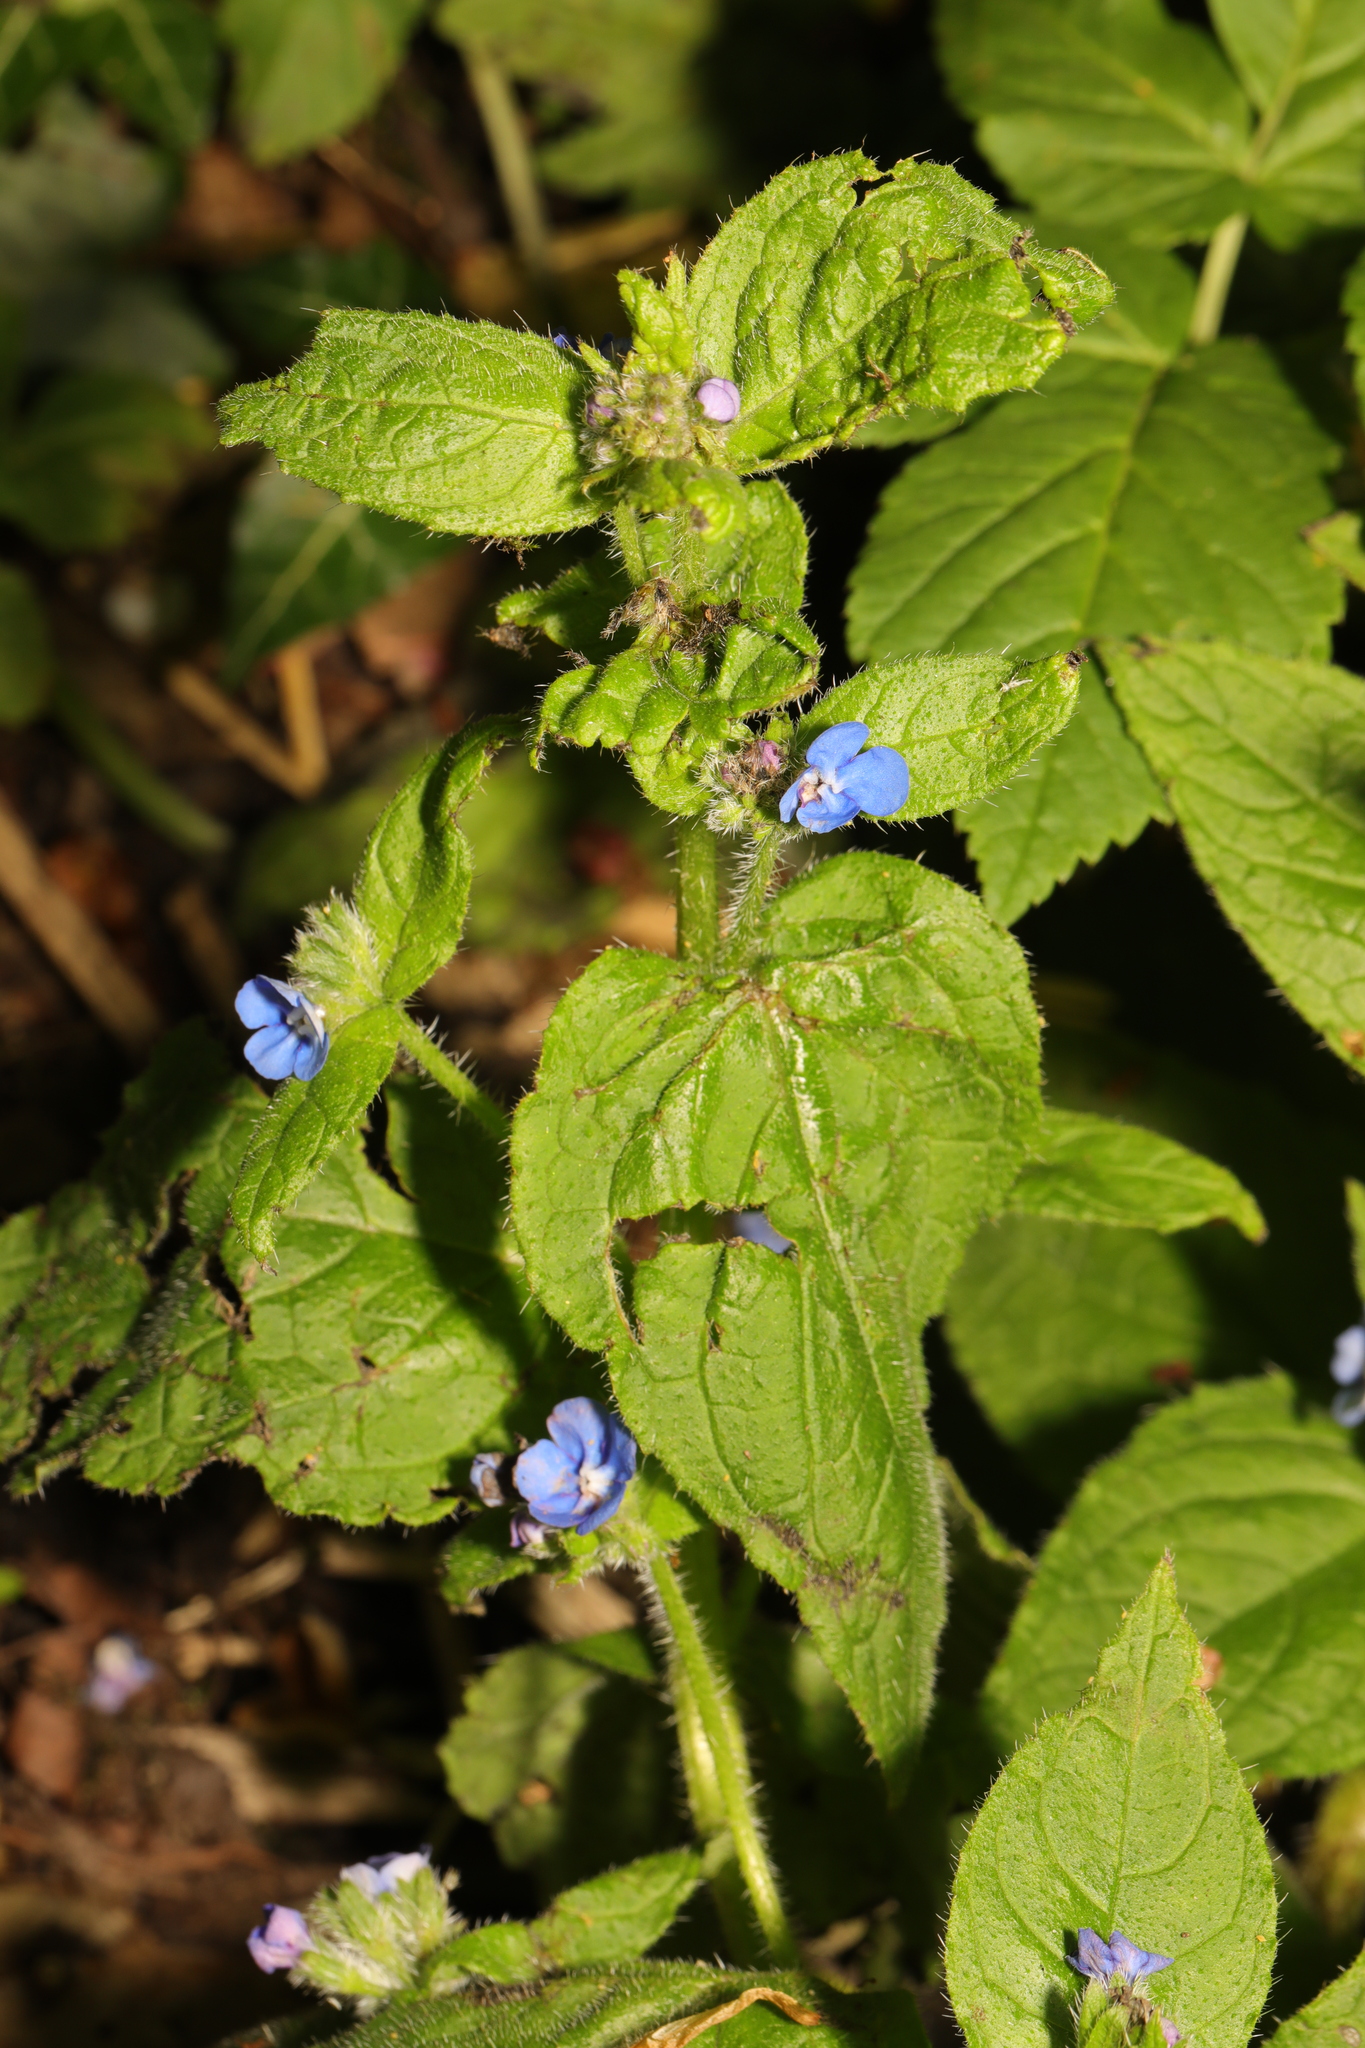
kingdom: Plantae
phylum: Tracheophyta
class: Magnoliopsida
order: Boraginales
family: Boraginaceae
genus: Pentaglottis
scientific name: Pentaglottis sempervirens
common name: Green alkanet
